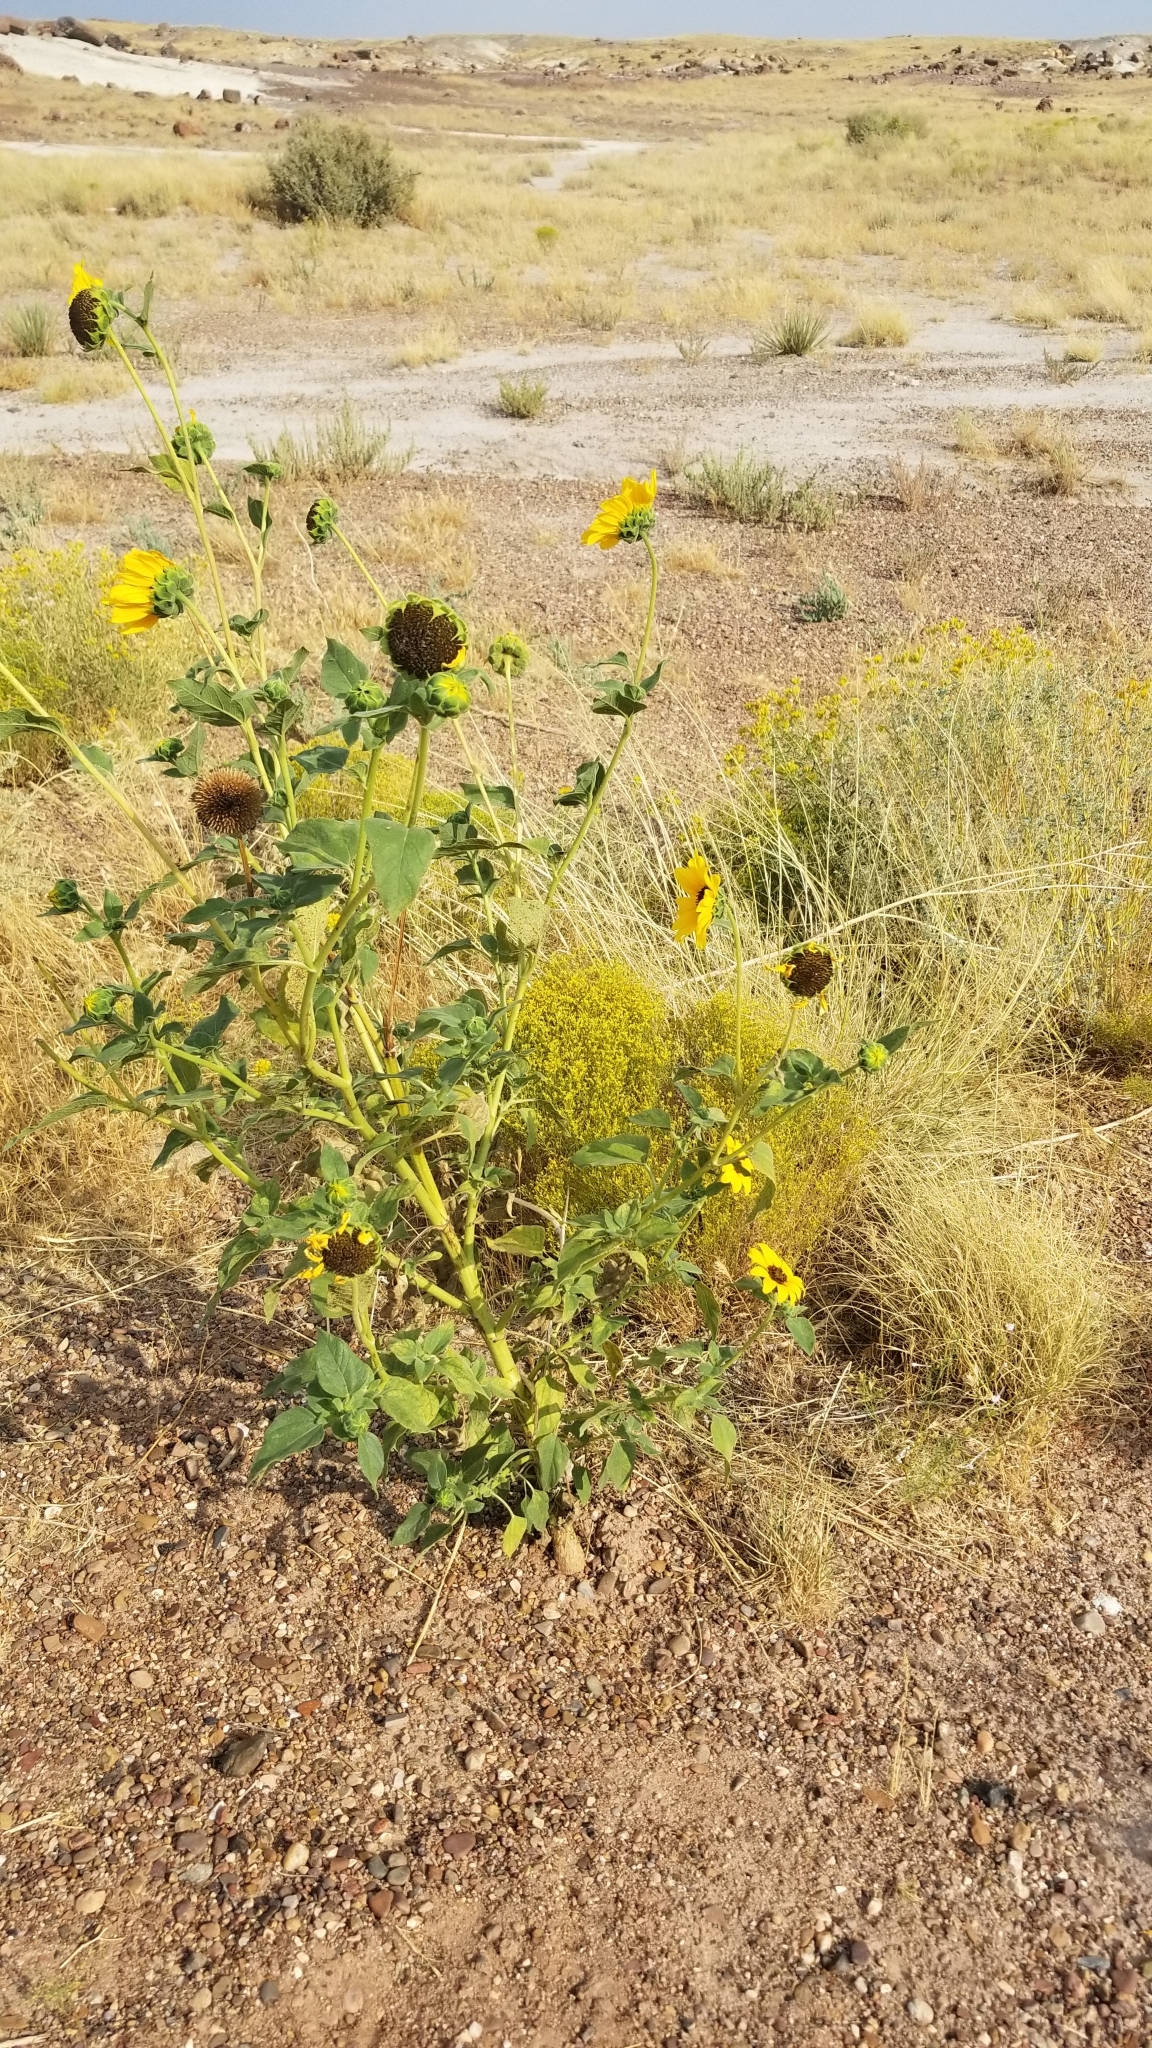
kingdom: Plantae
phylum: Tracheophyta
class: Magnoliopsida
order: Asterales
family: Asteraceae
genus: Helianthus
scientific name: Helianthus annuus
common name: Sunflower
